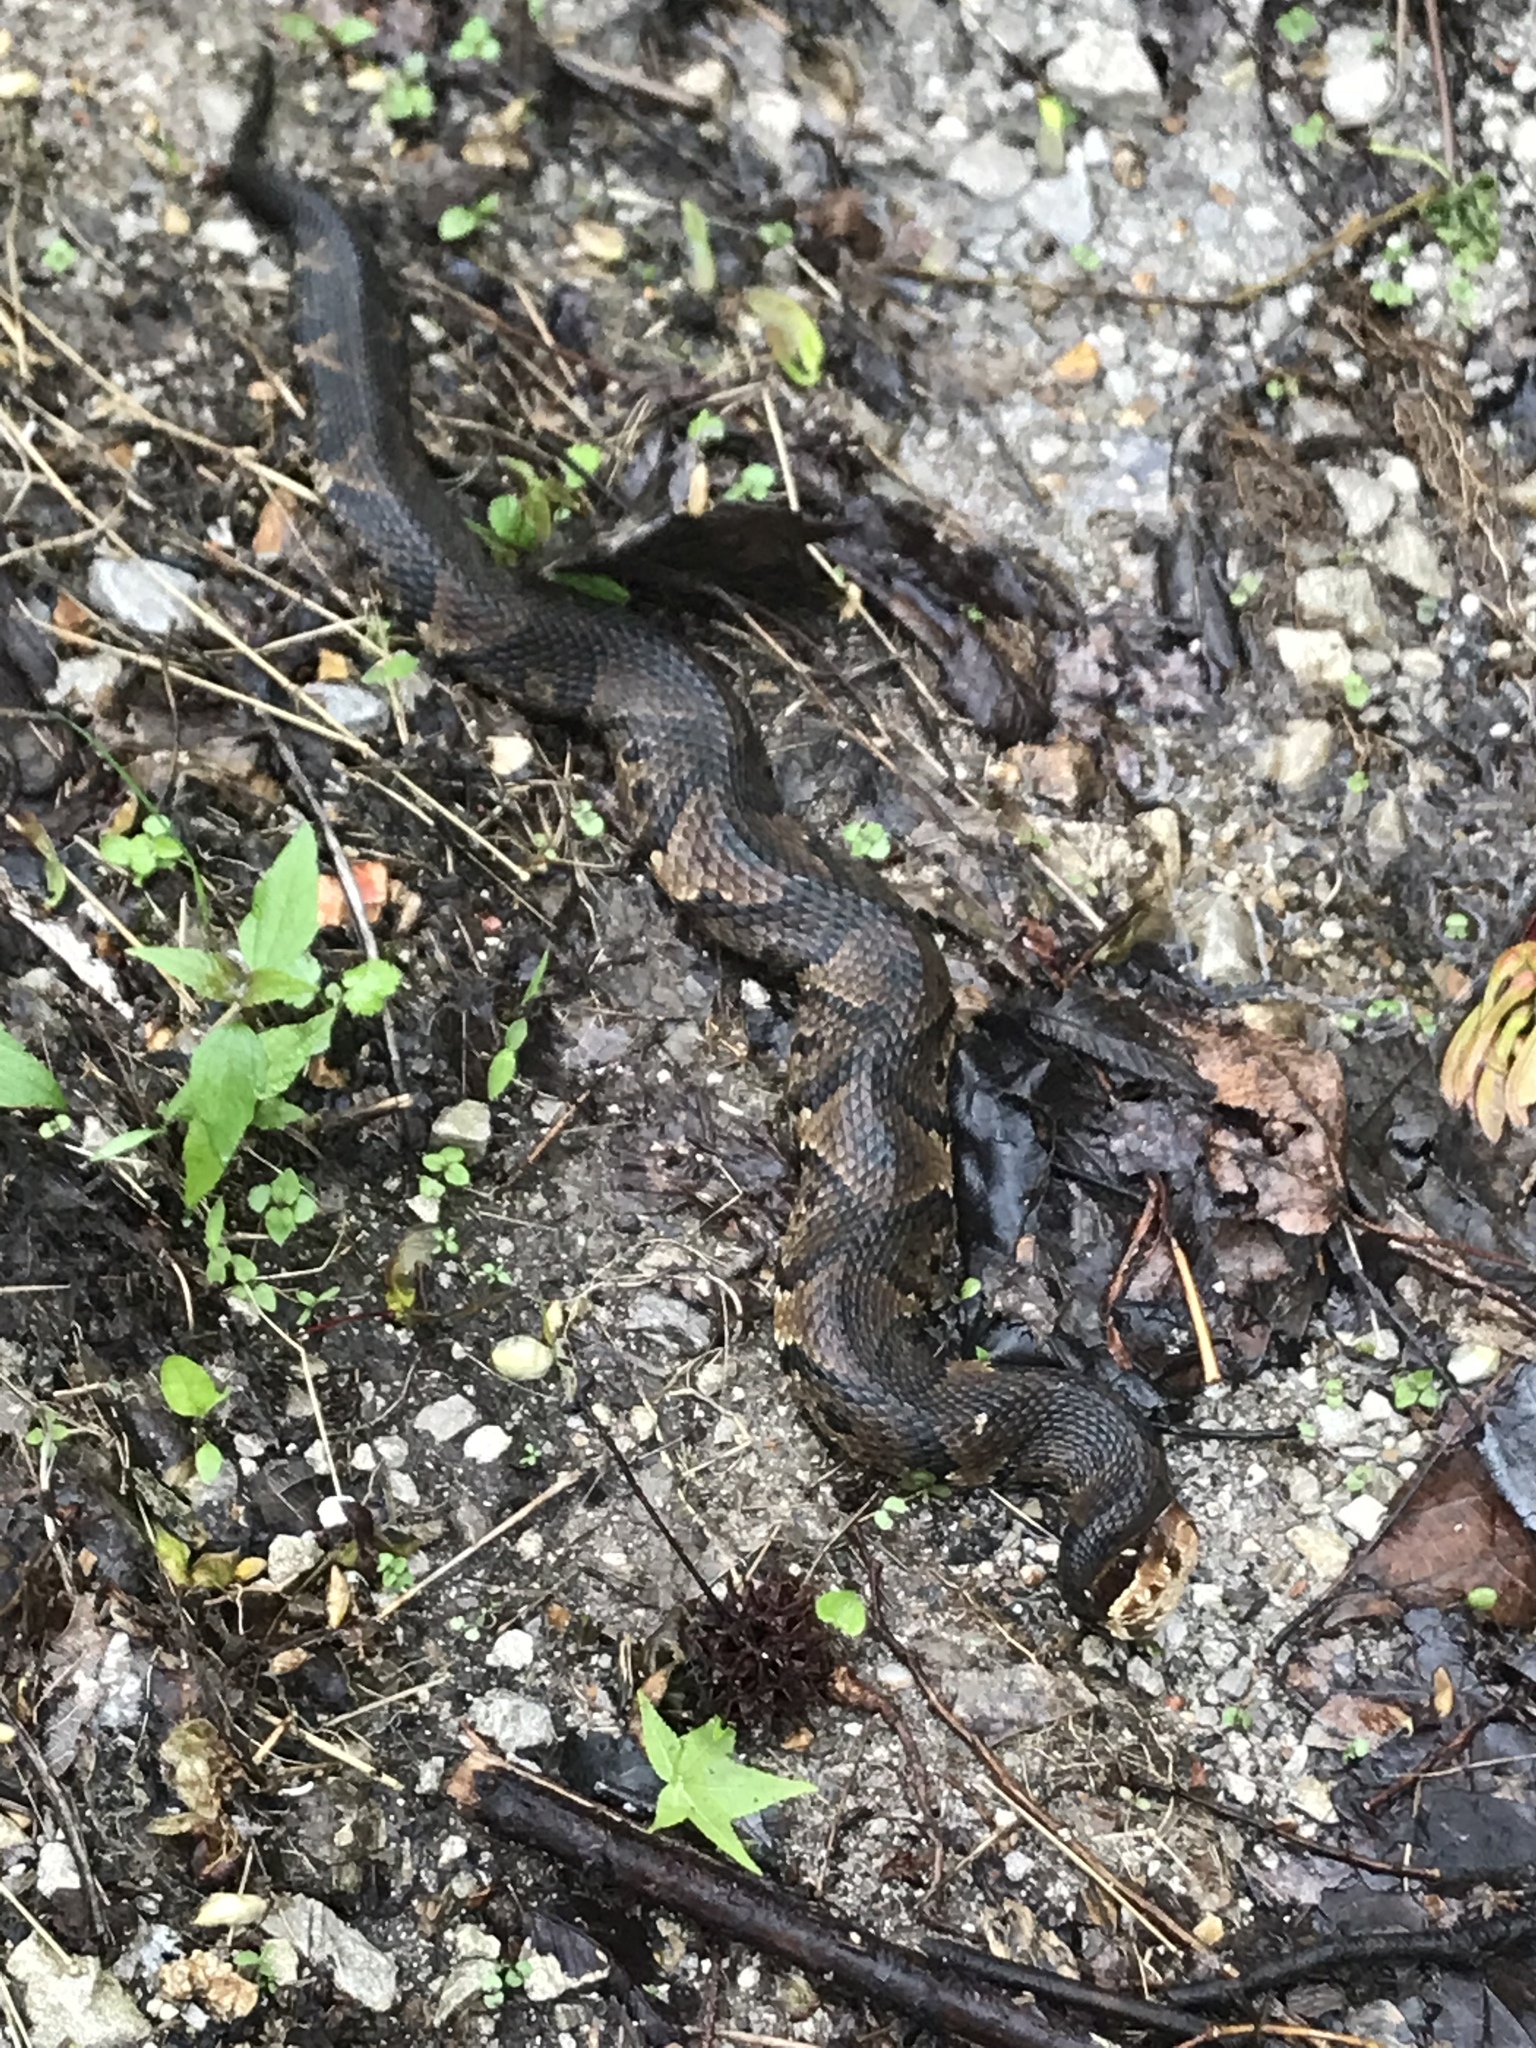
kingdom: Animalia
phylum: Chordata
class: Squamata
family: Viperidae
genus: Agkistrodon
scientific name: Agkistrodon piscivorus
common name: Cottonmouth
